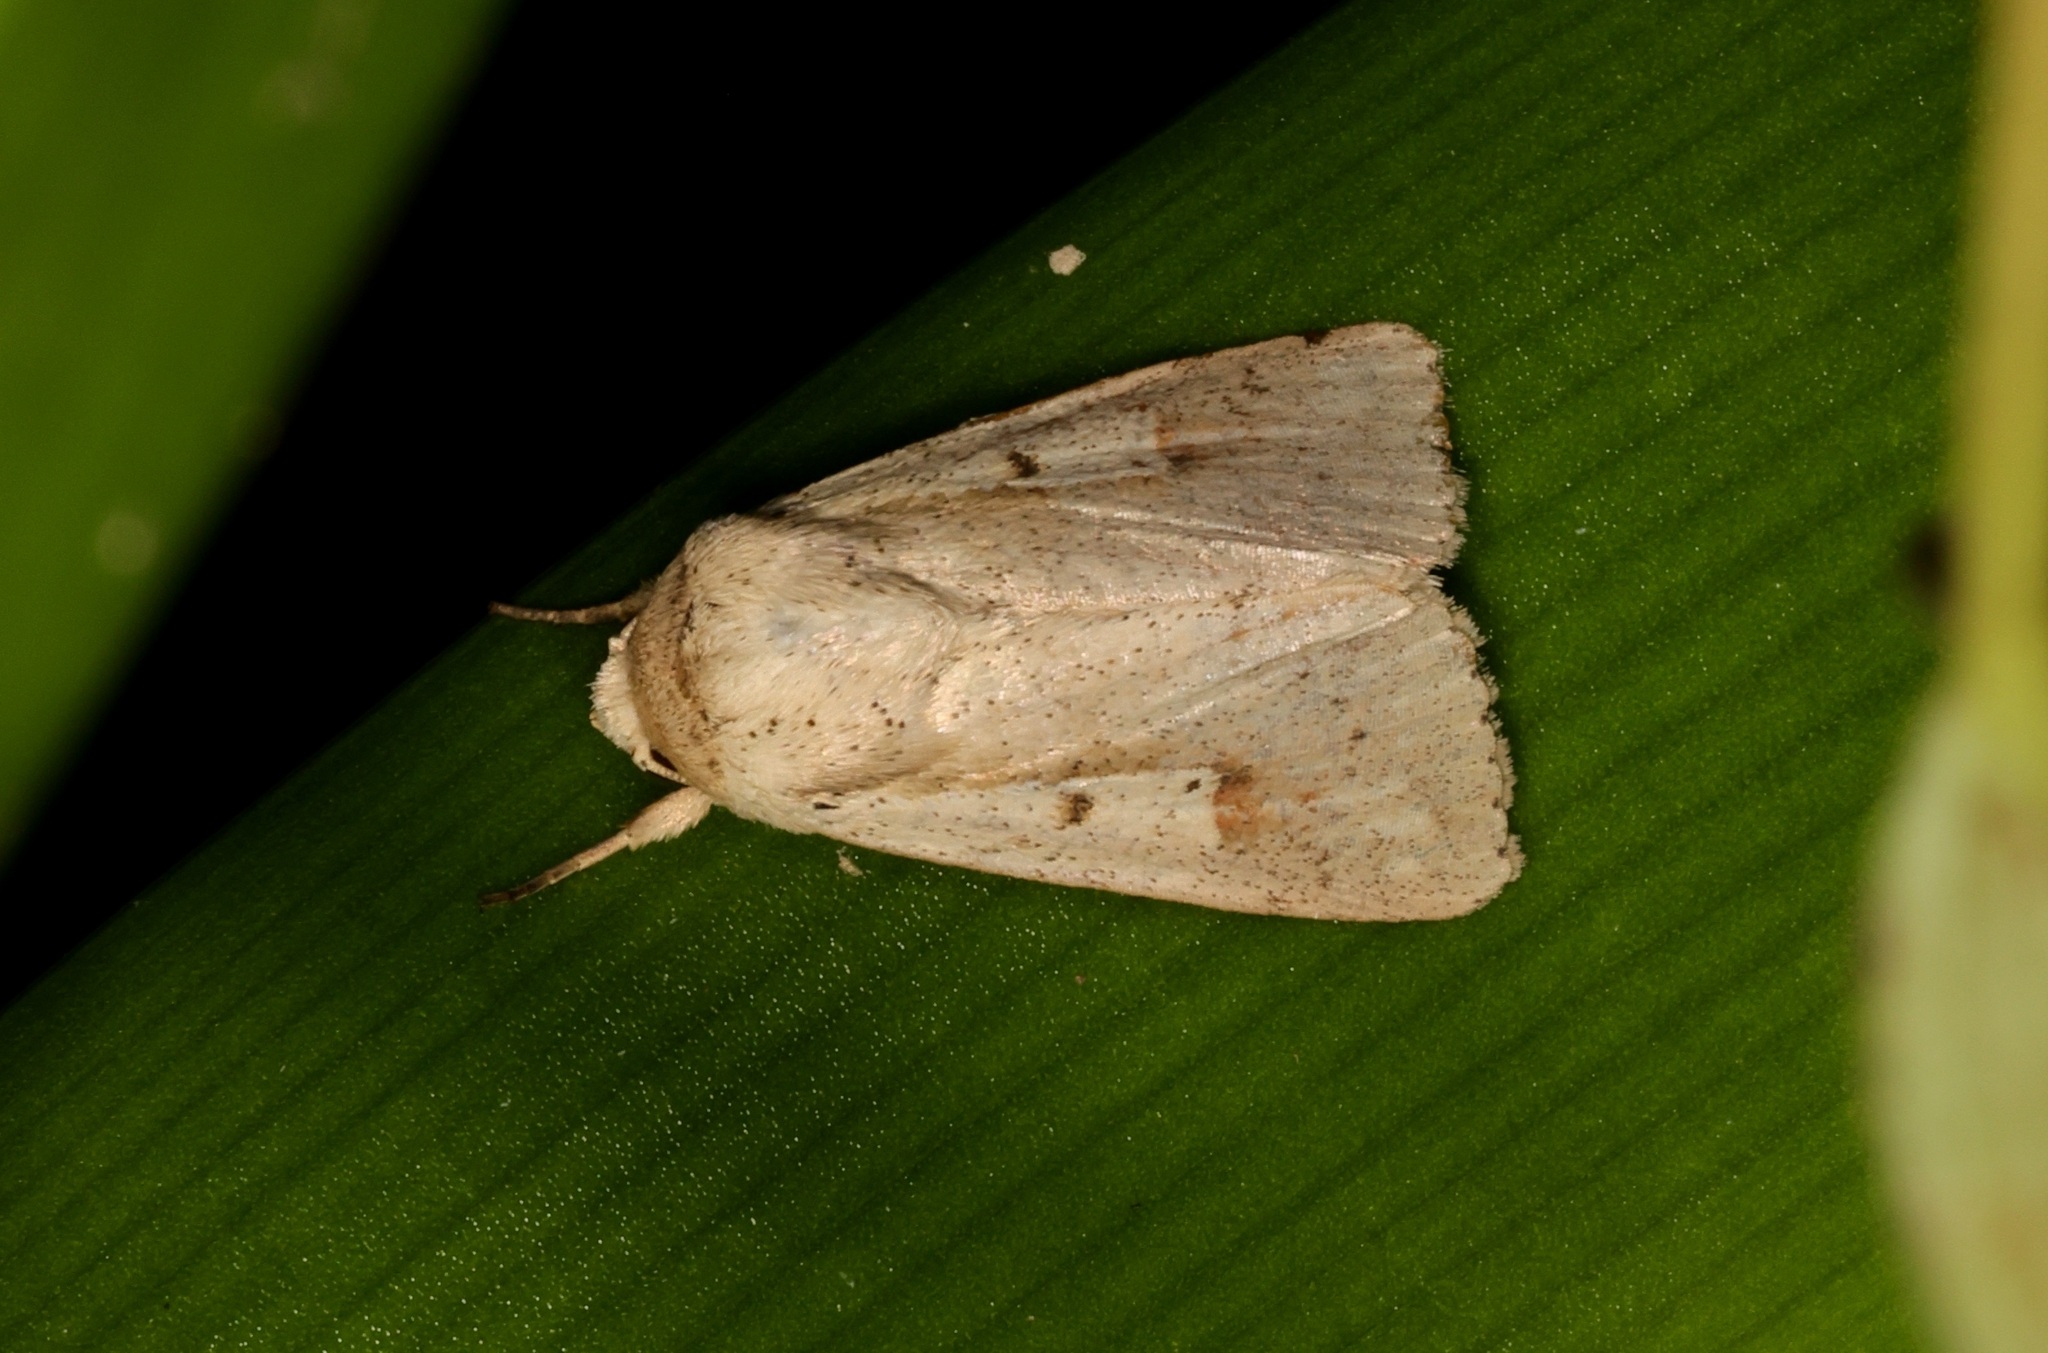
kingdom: Animalia
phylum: Arthropoda
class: Insecta
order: Lepidoptera
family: Noctuidae
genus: Leucania
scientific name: Leucania yu
